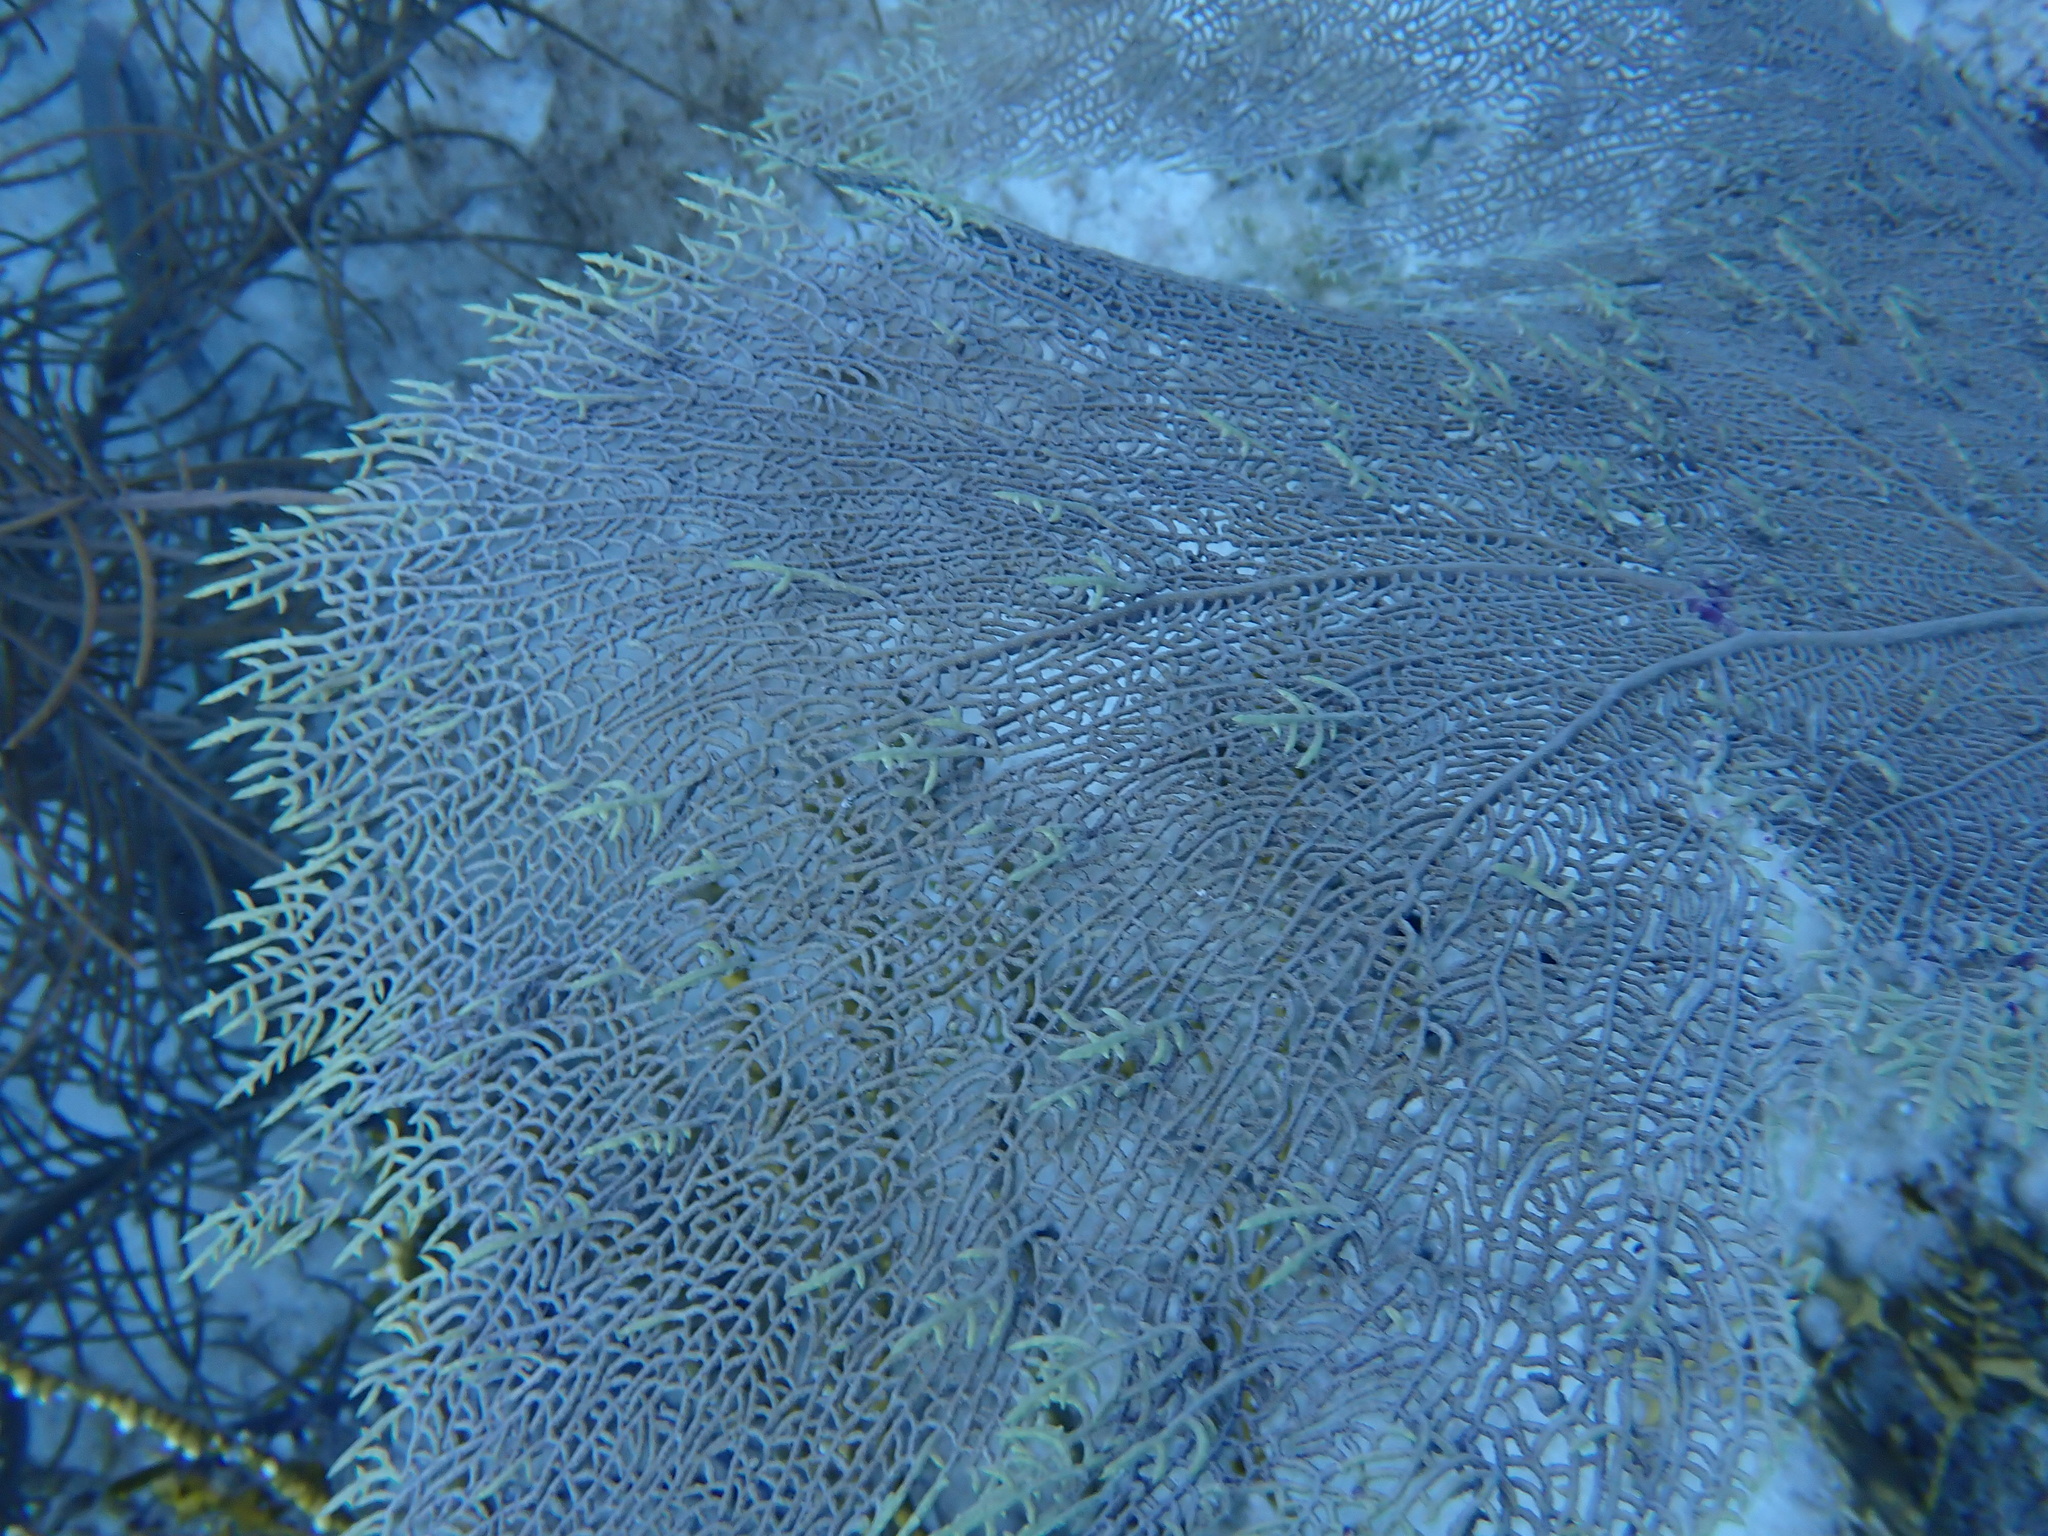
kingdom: Animalia
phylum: Cnidaria
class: Anthozoa
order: Malacalcyonacea
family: Gorgoniidae
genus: Gorgonia
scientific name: Gorgonia ventalina
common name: Common sea fan
